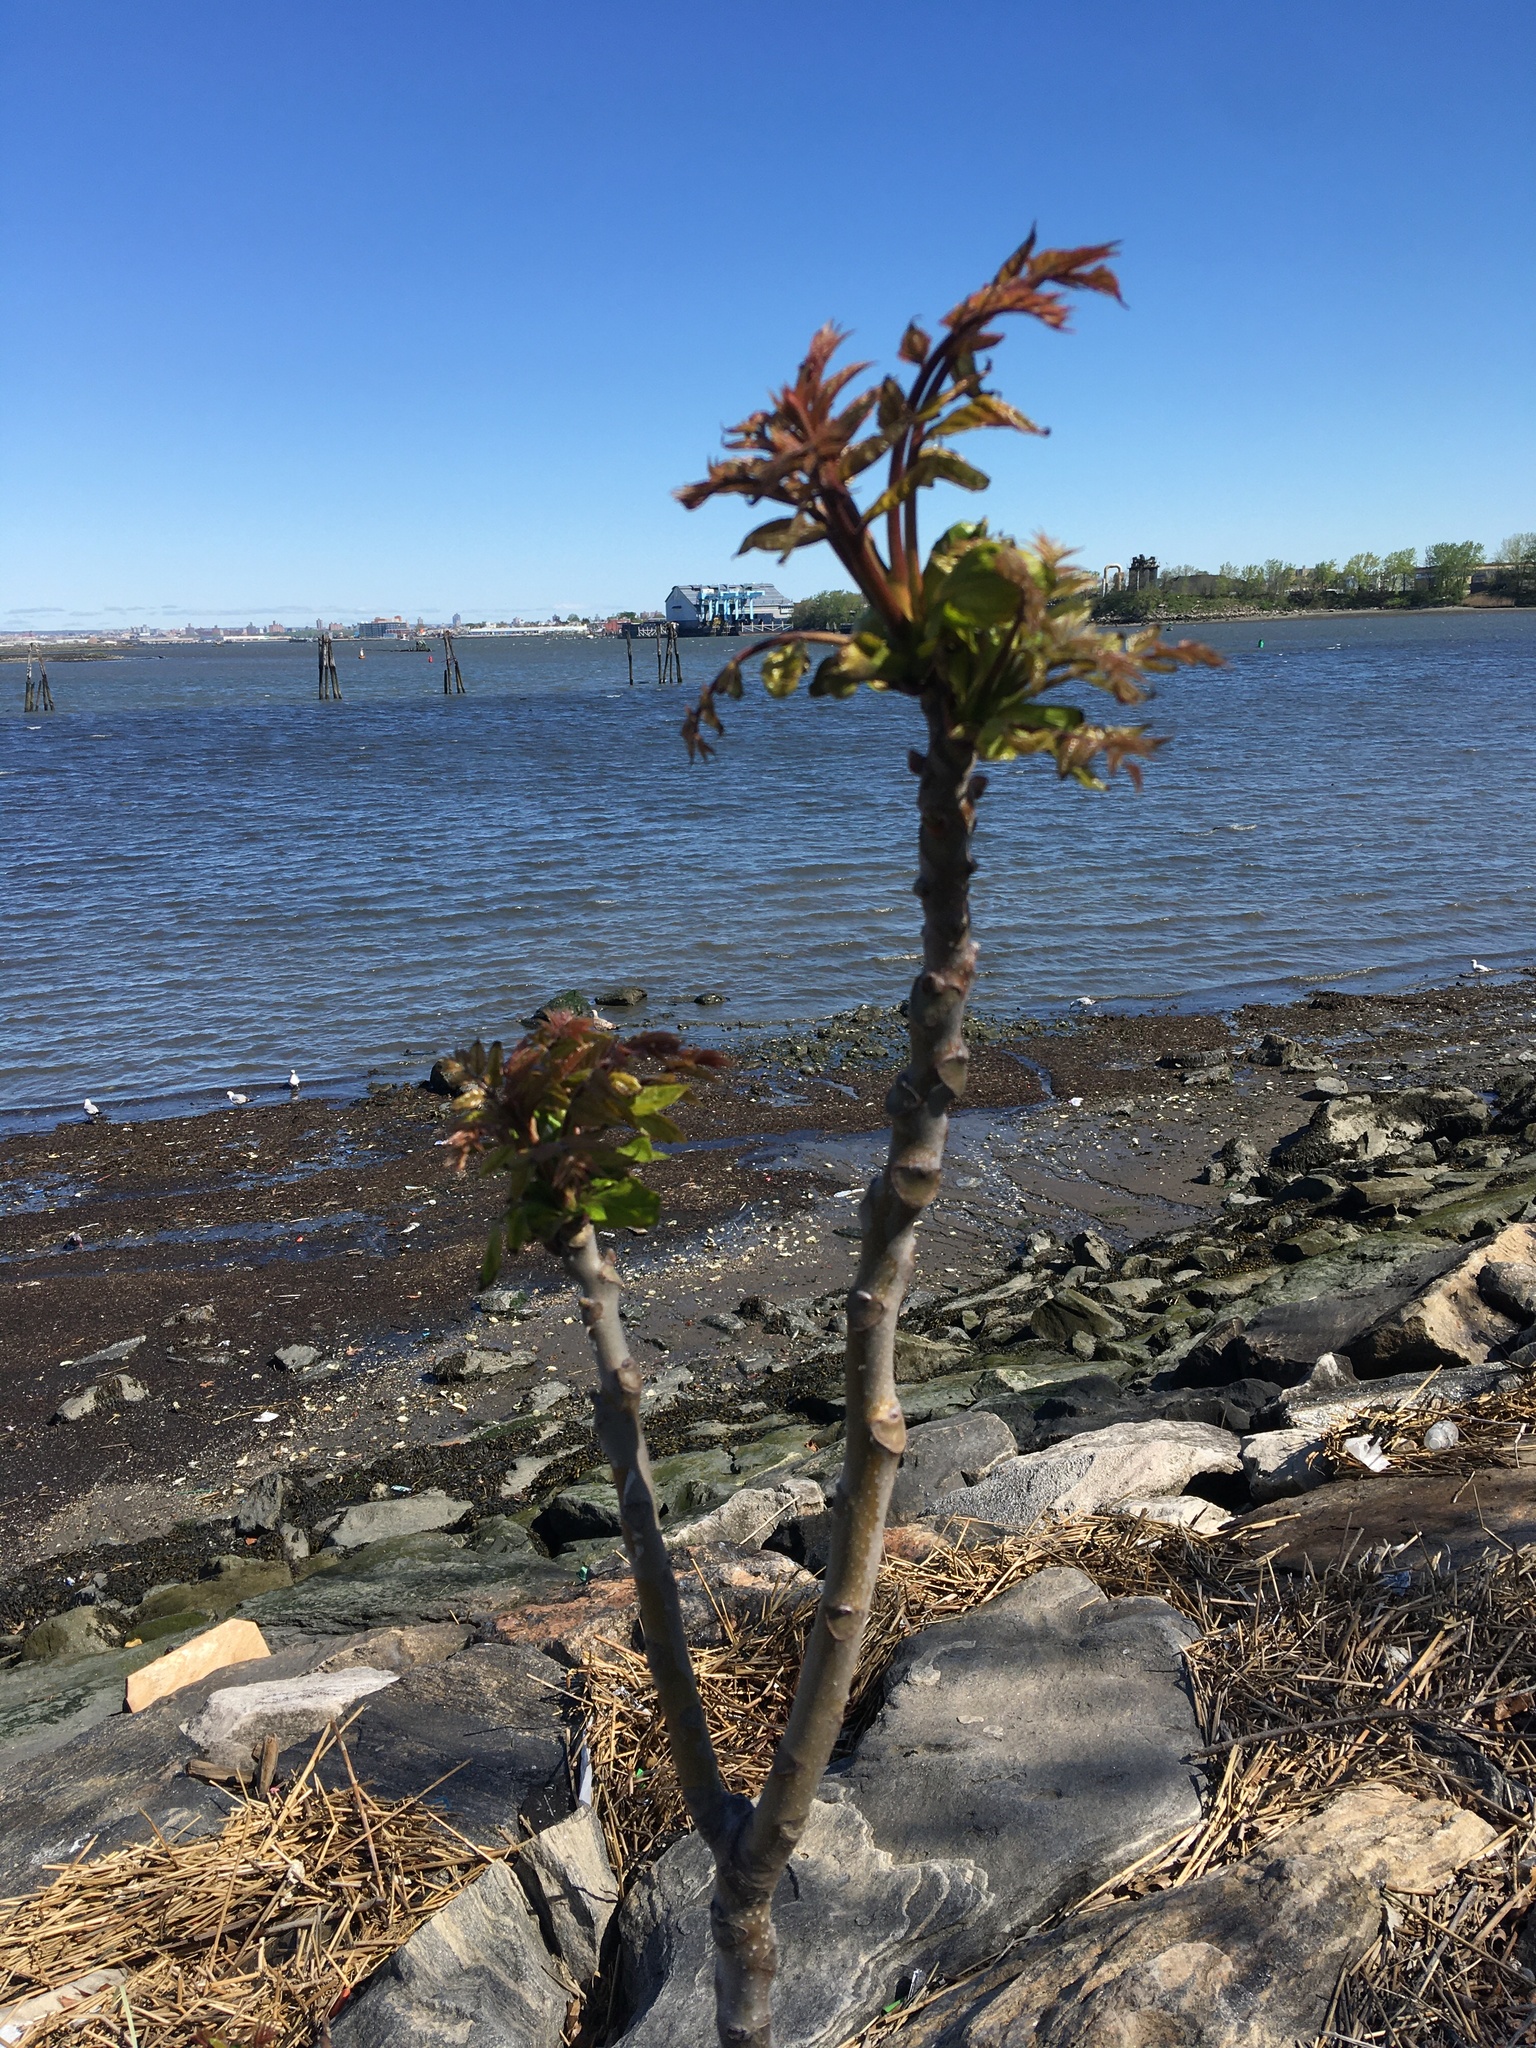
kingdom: Plantae
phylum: Tracheophyta
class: Magnoliopsida
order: Sapindales
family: Simaroubaceae
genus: Ailanthus
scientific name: Ailanthus altissima
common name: Tree-of-heaven
